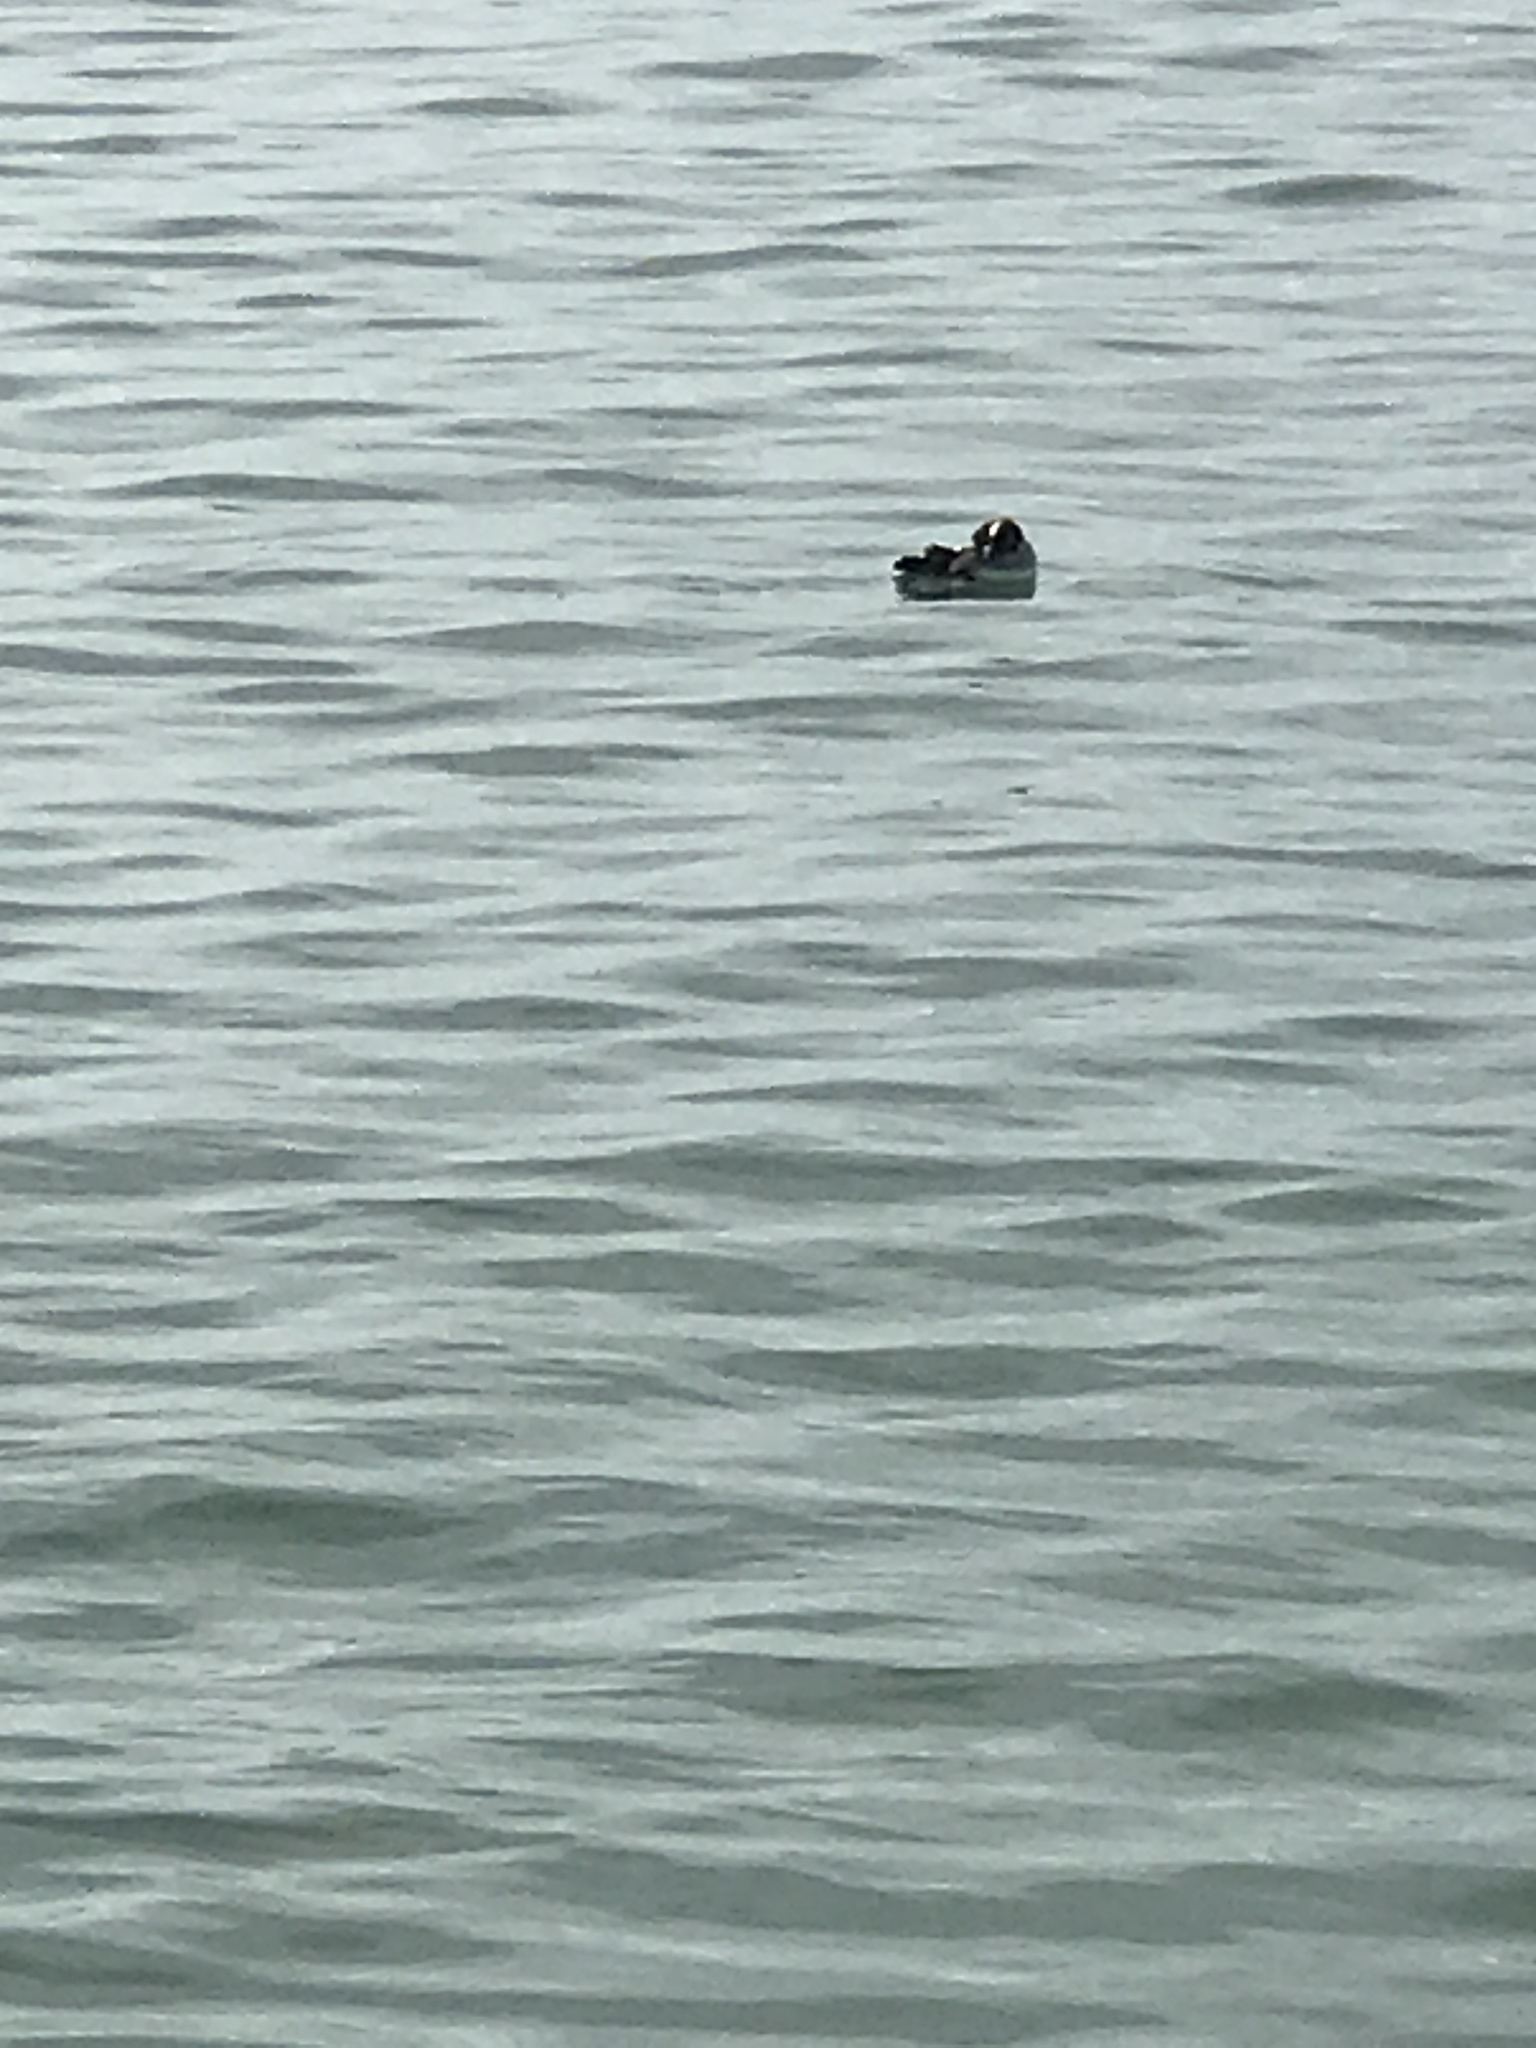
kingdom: Animalia
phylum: Chordata
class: Aves
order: Anseriformes
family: Anatidae
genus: Bucephala
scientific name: Bucephala albeola
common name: Bufflehead
